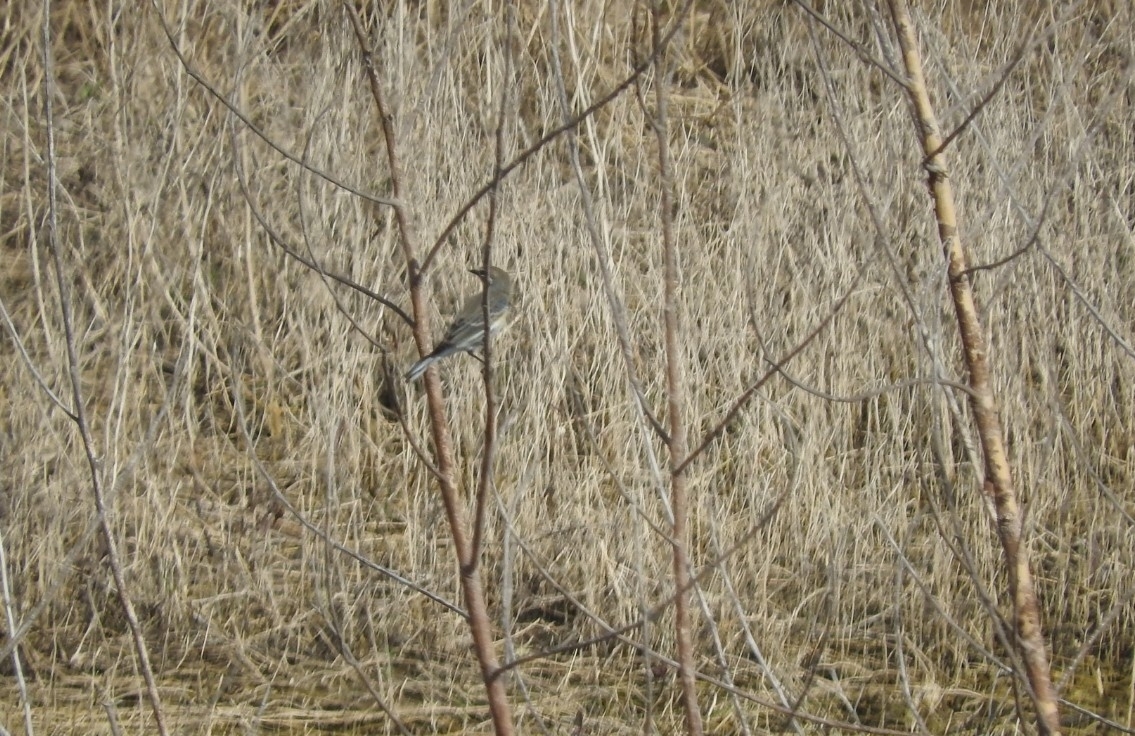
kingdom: Animalia
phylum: Chordata
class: Aves
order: Passeriformes
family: Parulidae
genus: Setophaga
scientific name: Setophaga coronata
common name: Myrtle warbler
